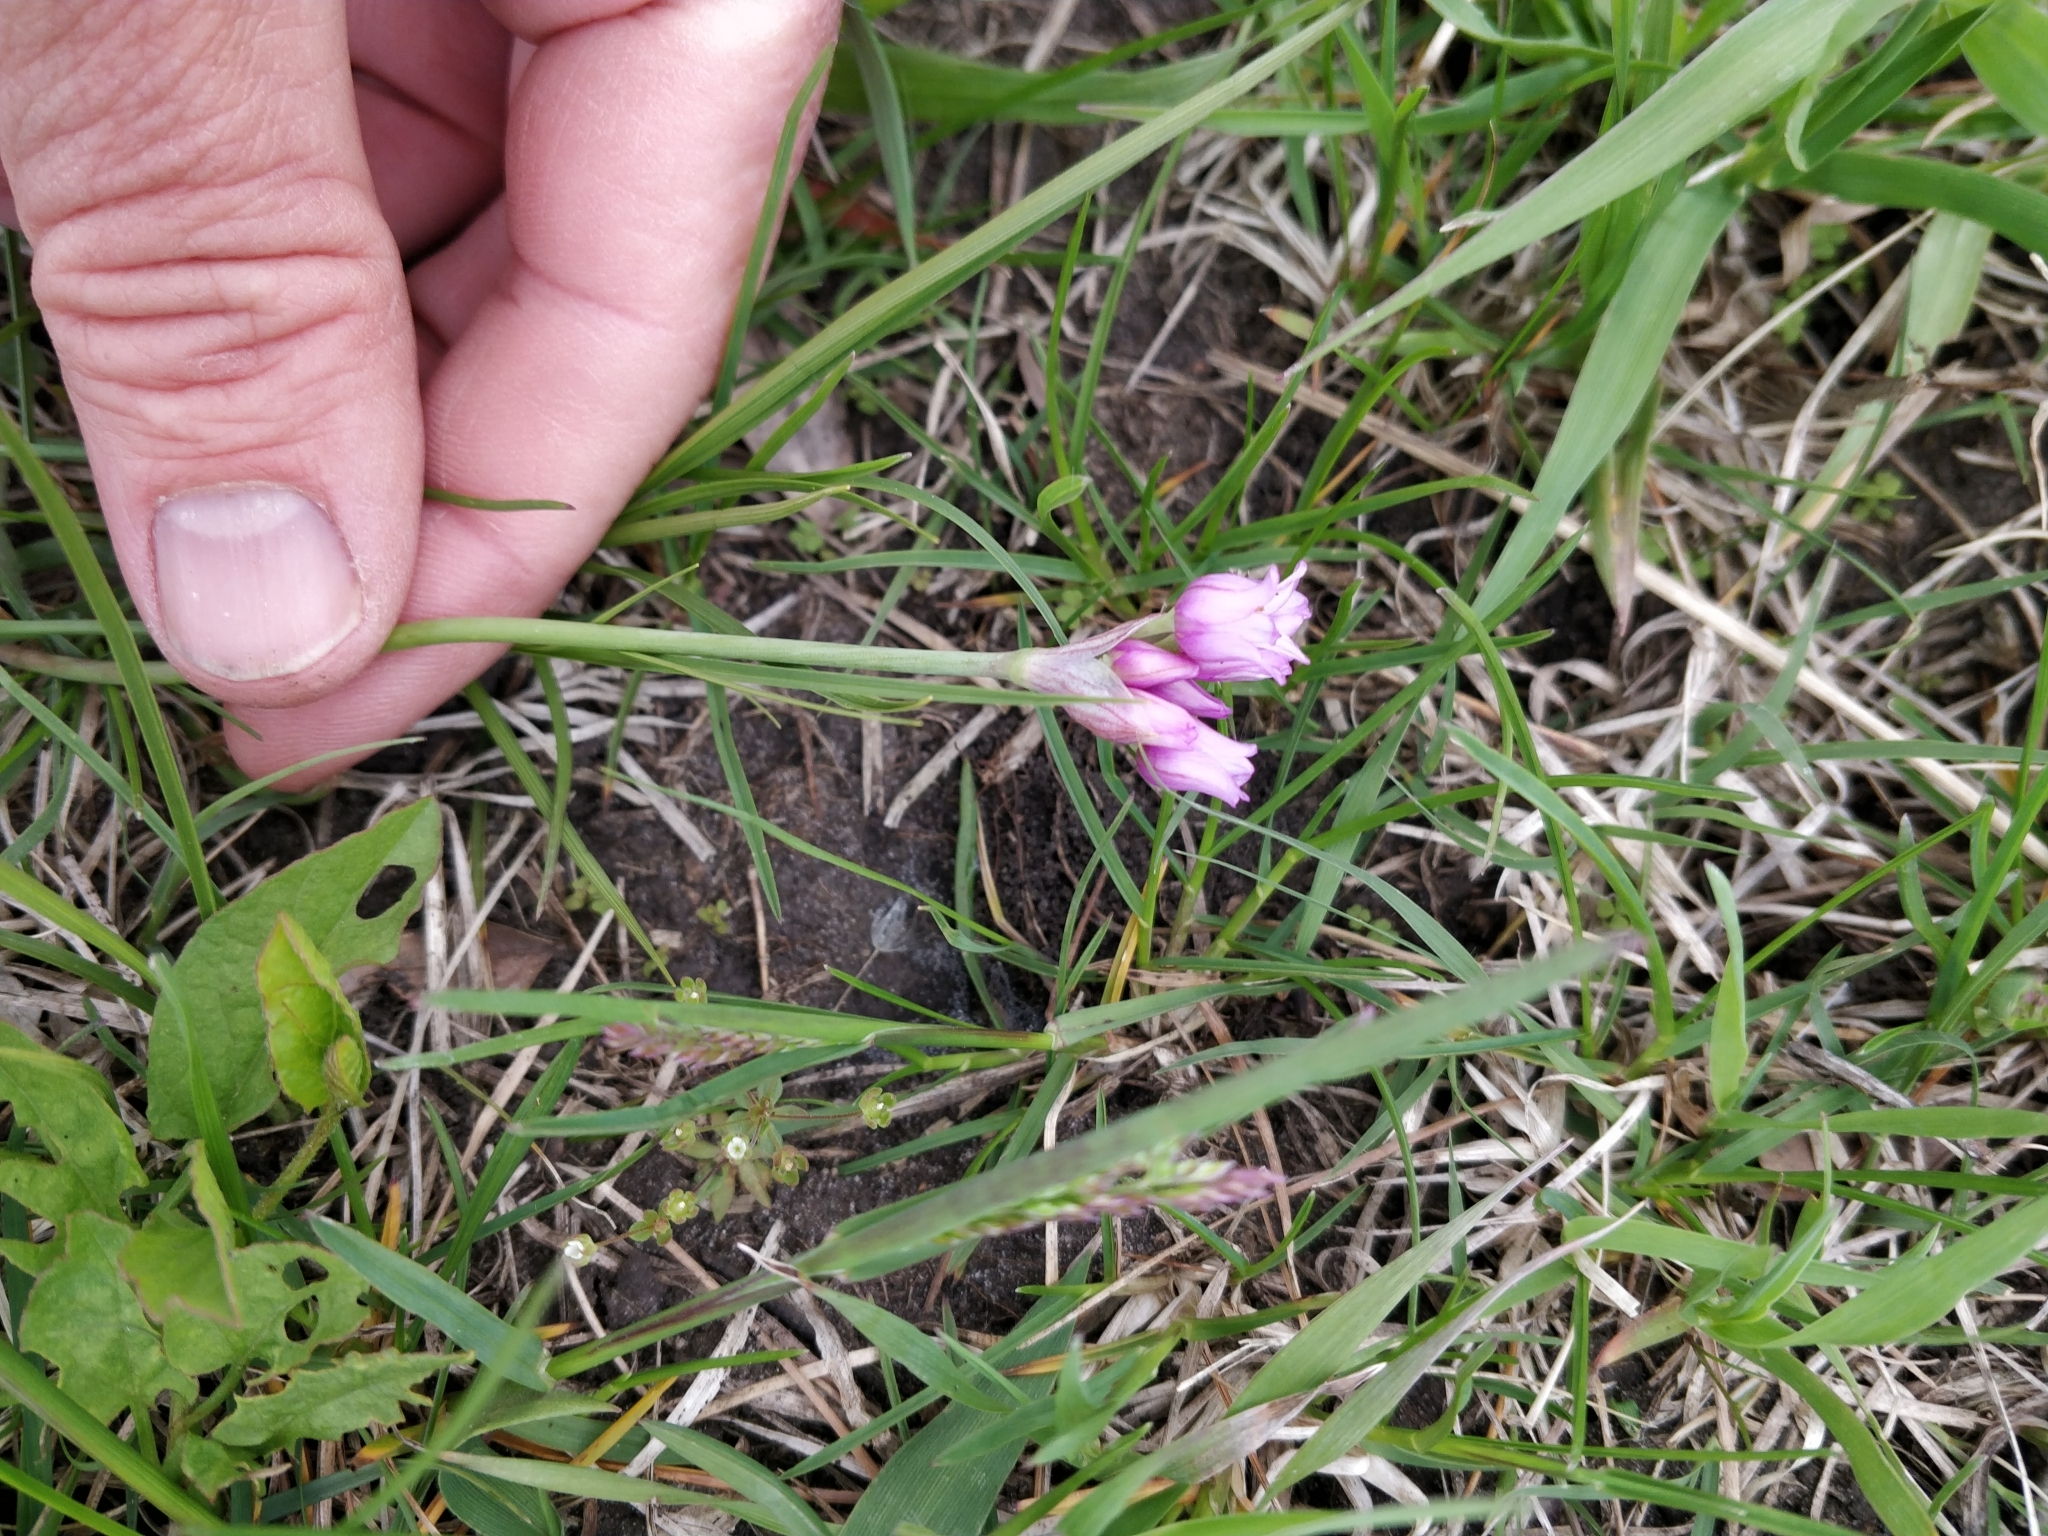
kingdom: Plantae
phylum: Tracheophyta
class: Liliopsida
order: Asparagales
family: Amaryllidaceae
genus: Allium
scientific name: Allium perdulce
